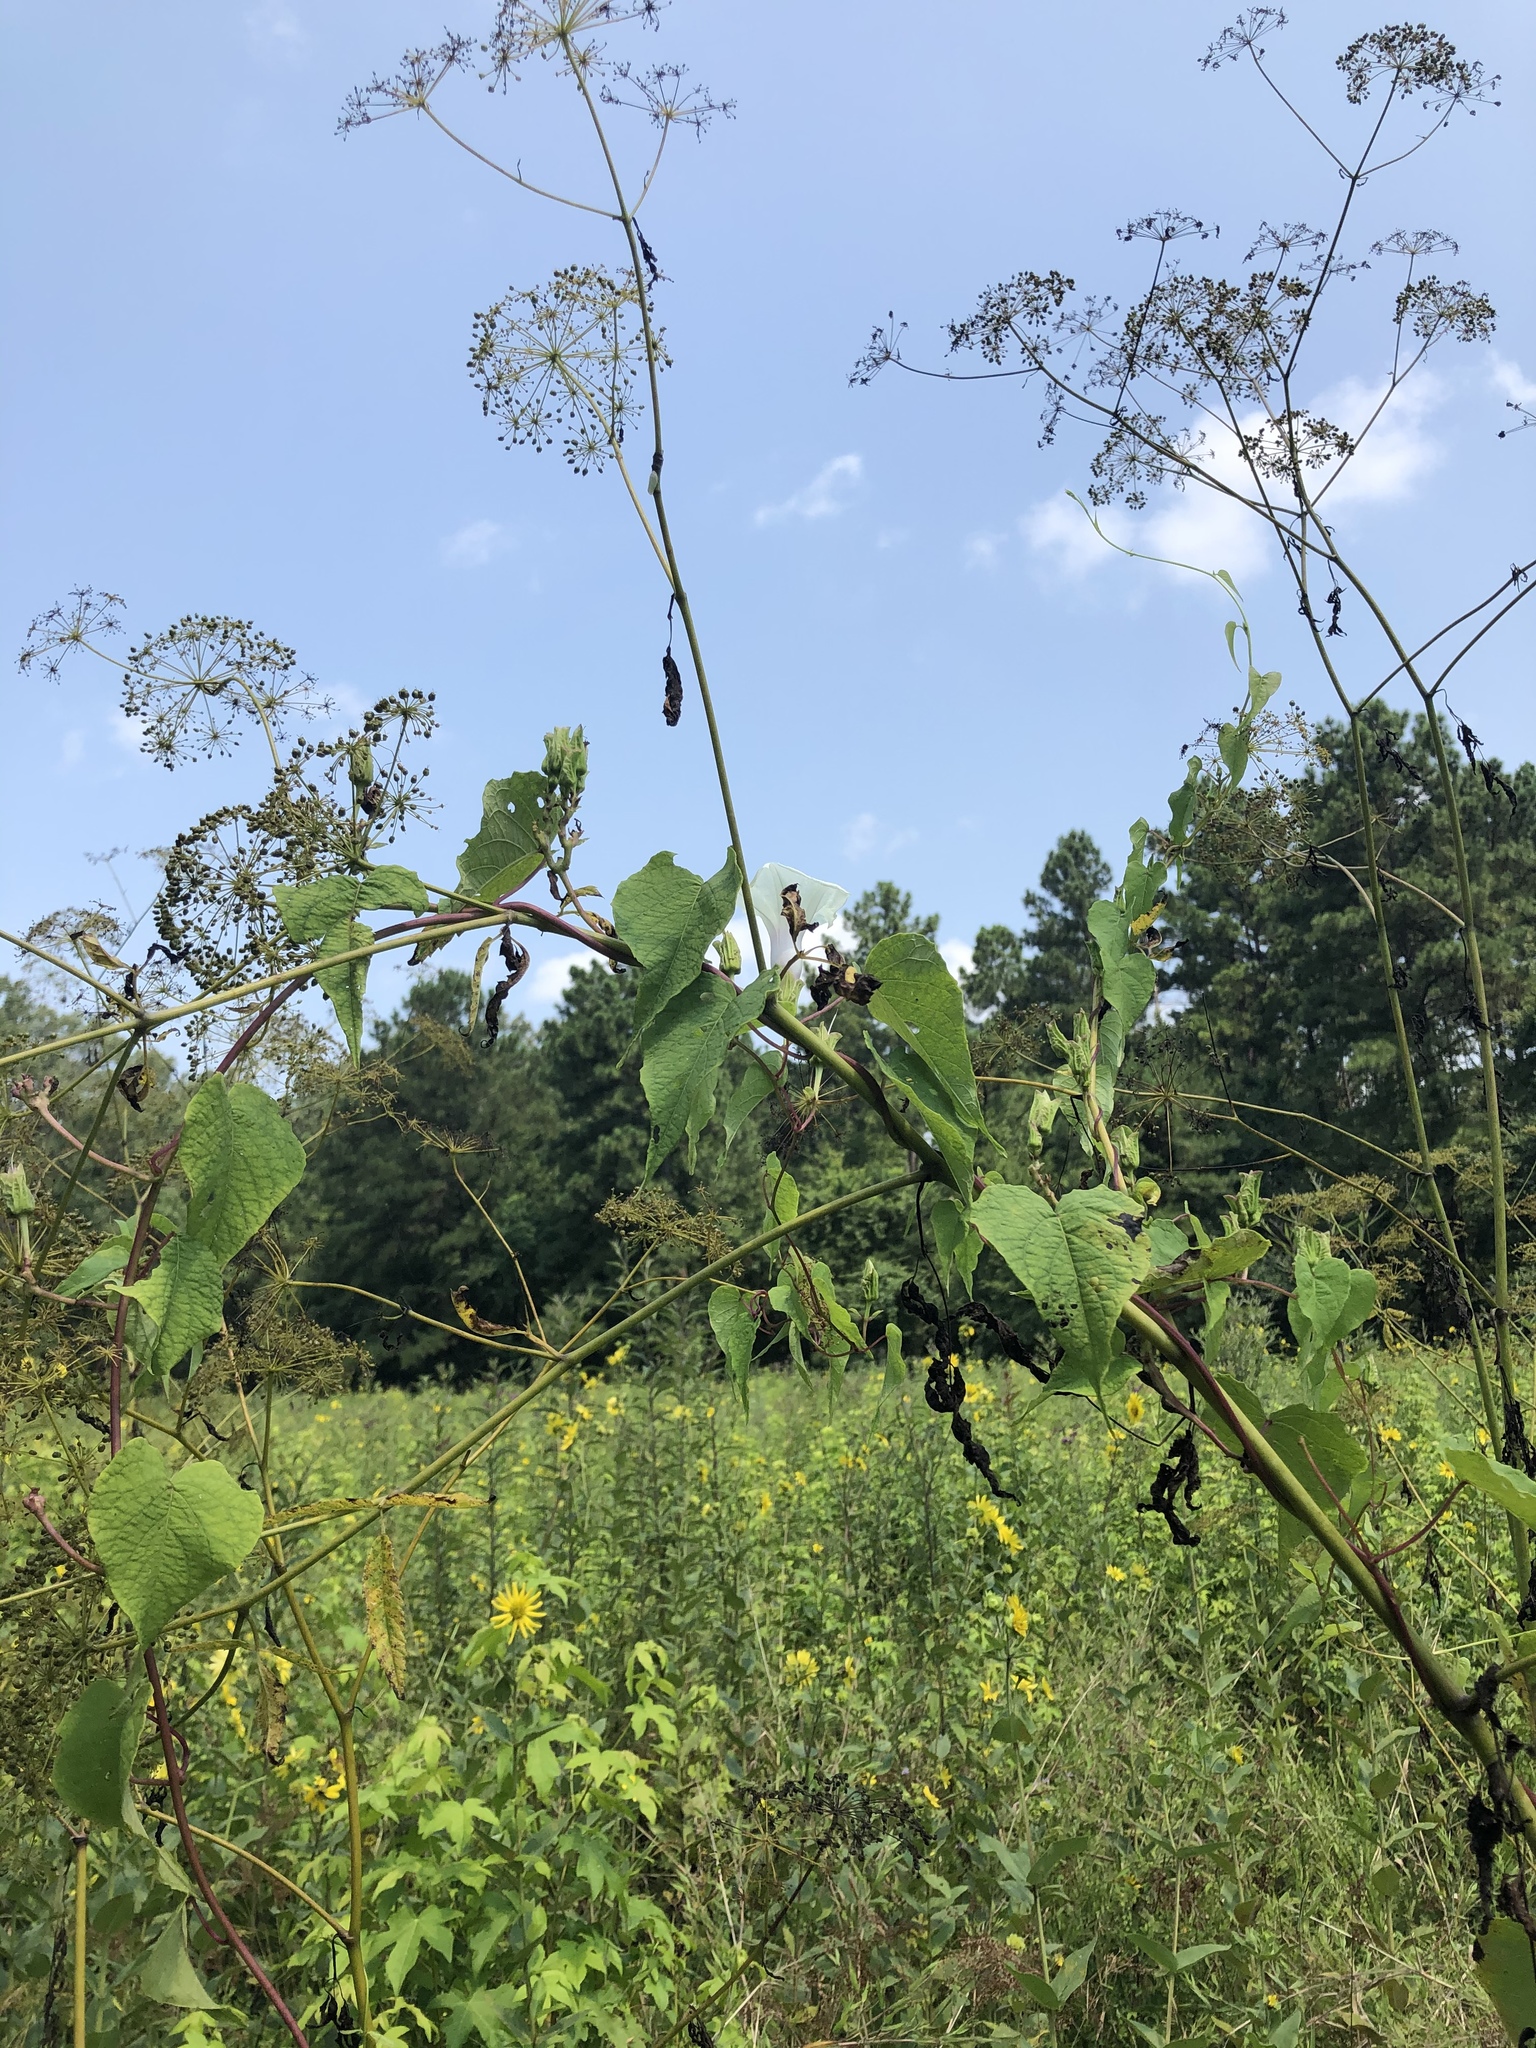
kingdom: Plantae
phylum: Tracheophyta
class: Magnoliopsida
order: Solanales
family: Convolvulaceae
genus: Ipomoea
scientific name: Ipomoea pandurata
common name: Man-of-the-earth
